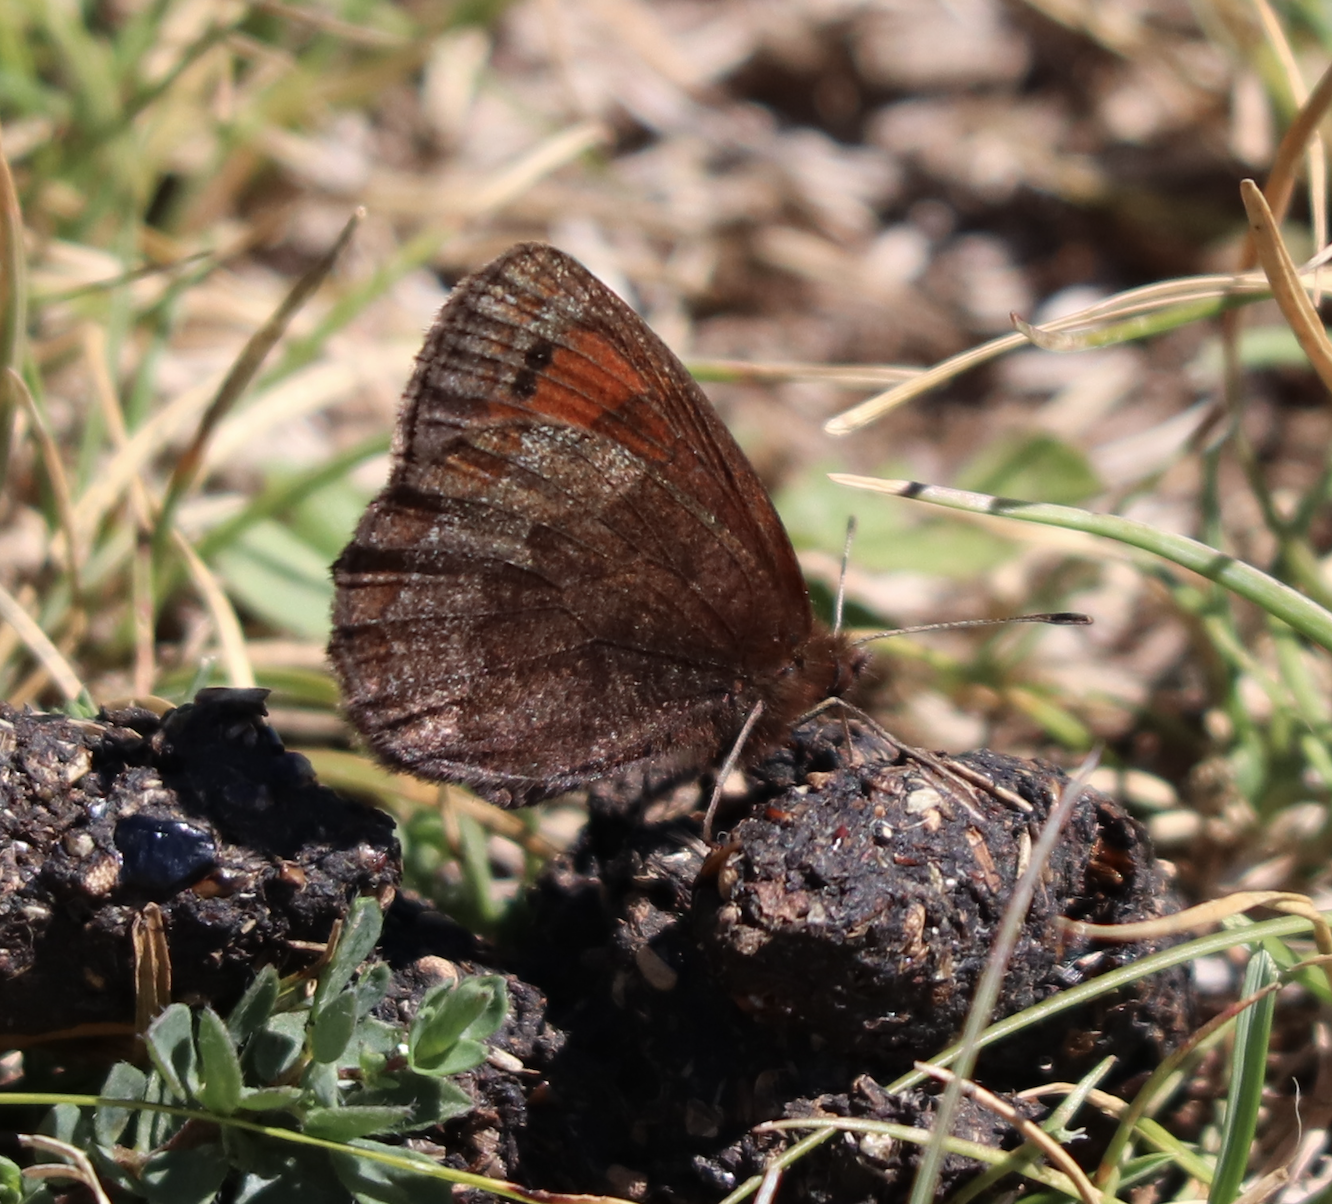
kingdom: Animalia
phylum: Arthropoda
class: Insecta
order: Lepidoptera
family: Nymphalidae
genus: Erebia
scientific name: Erebia pronoe
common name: Water ringlet
